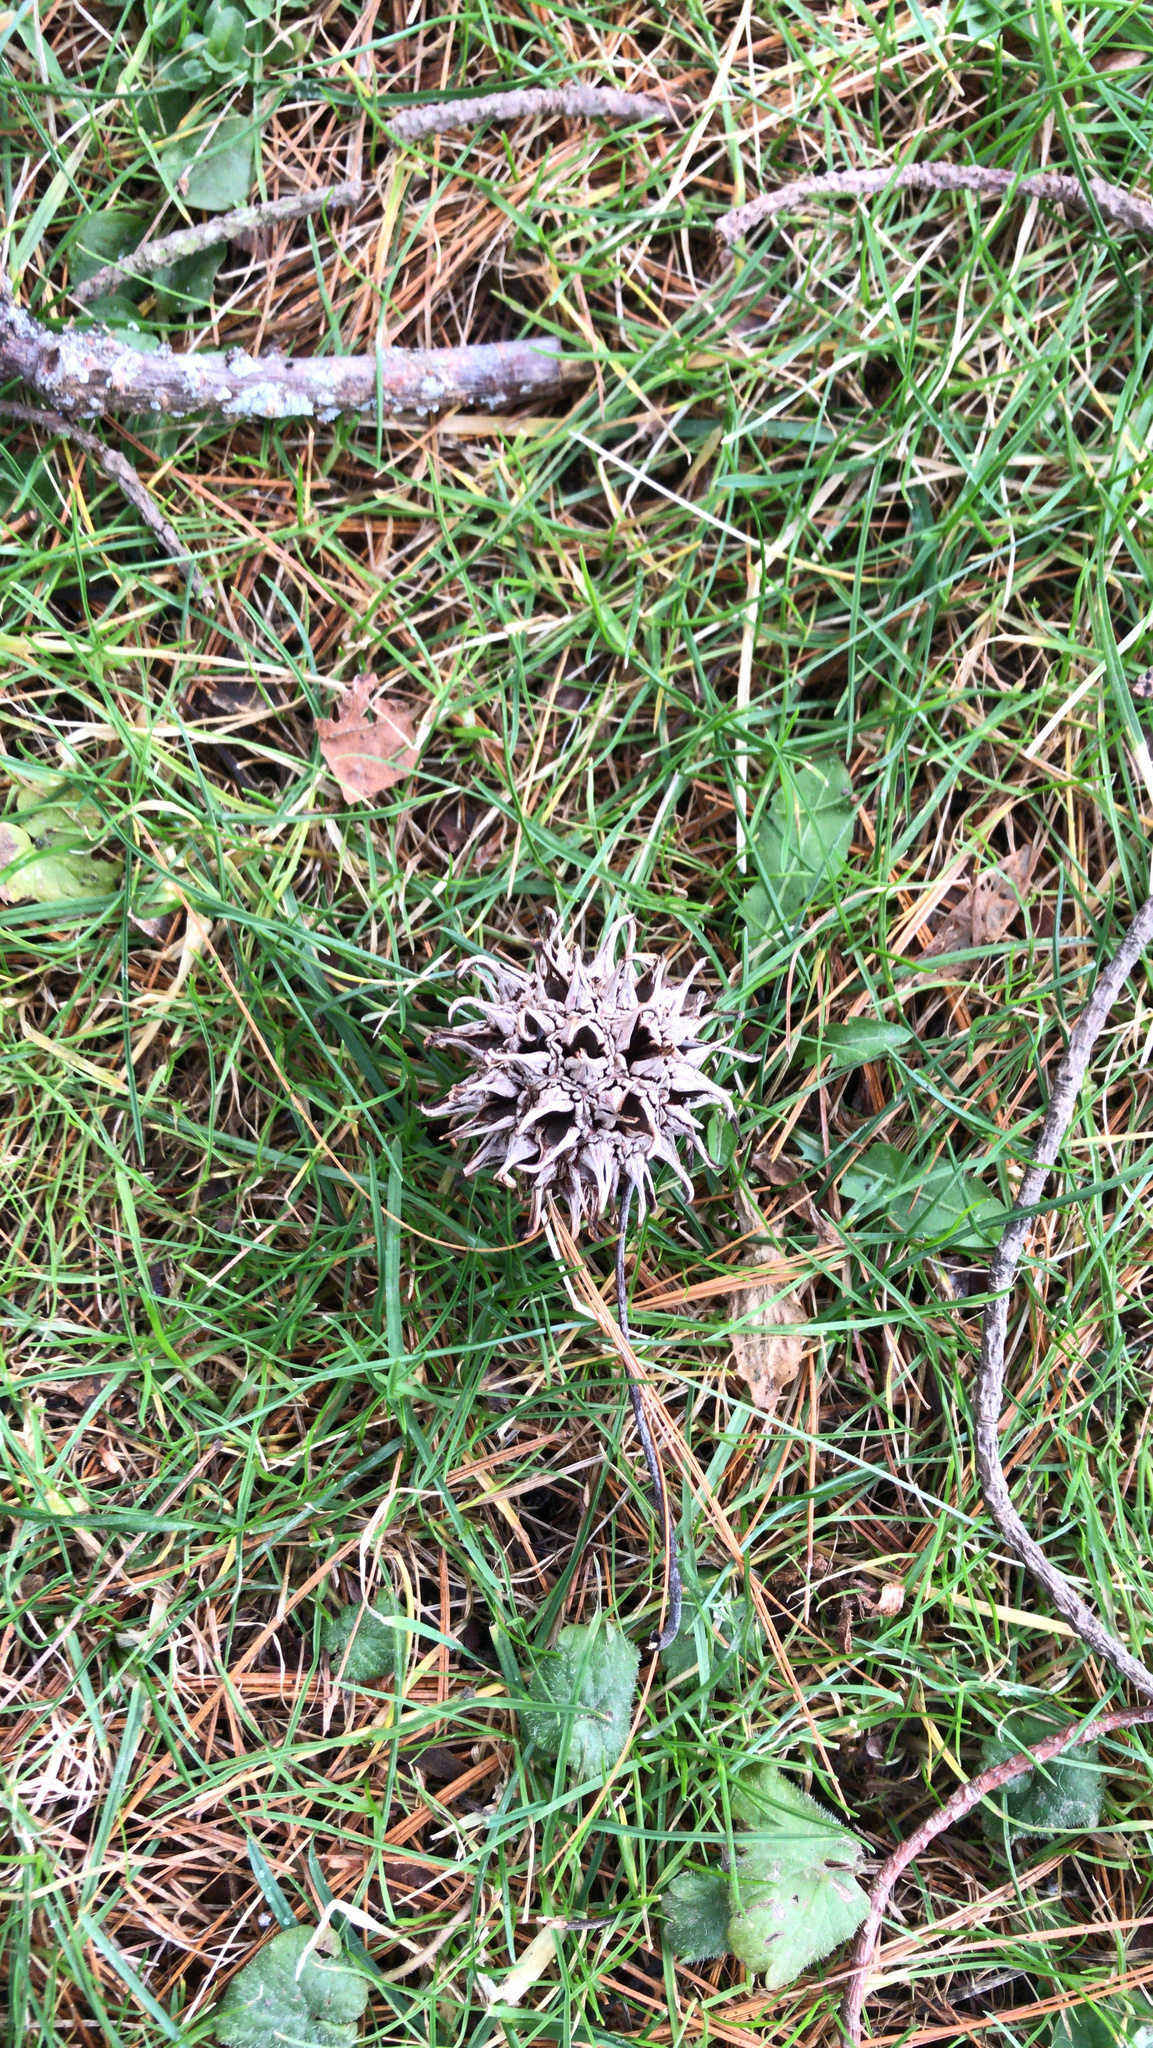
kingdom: Plantae
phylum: Tracheophyta
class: Magnoliopsida
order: Saxifragales
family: Altingiaceae
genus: Liquidambar
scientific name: Liquidambar styraciflua
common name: Sweet gum
